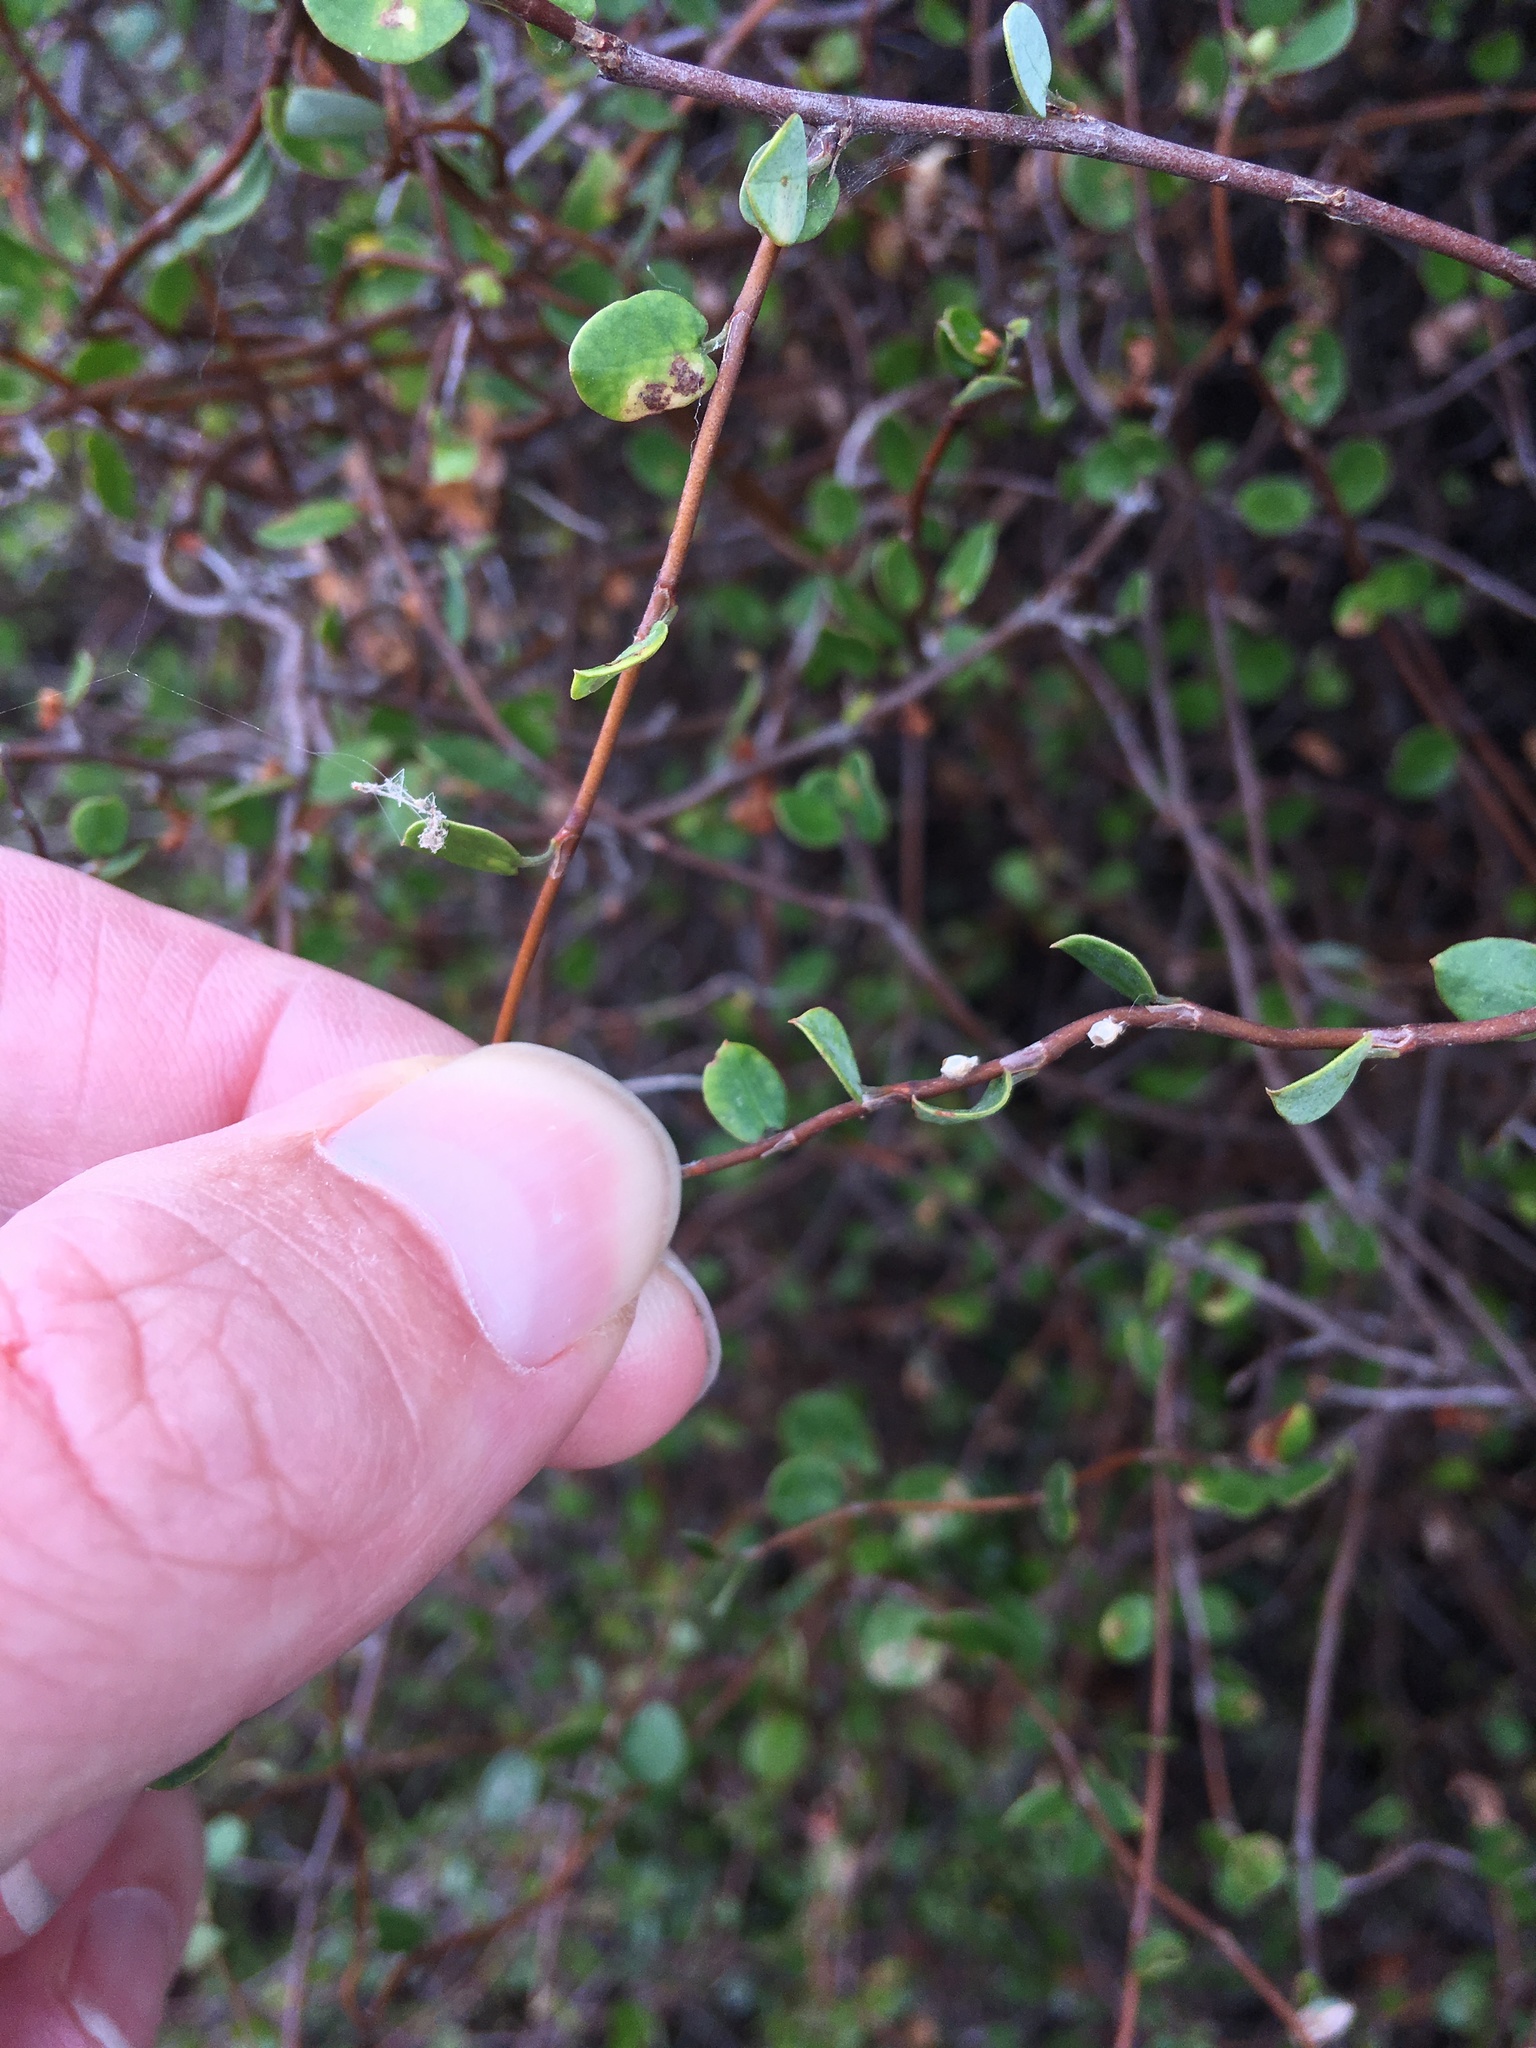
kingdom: Plantae
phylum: Tracheophyta
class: Magnoliopsida
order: Caryophyllales
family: Polygonaceae
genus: Muehlenbeckia
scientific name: Muehlenbeckia complexa
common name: Wireplant
